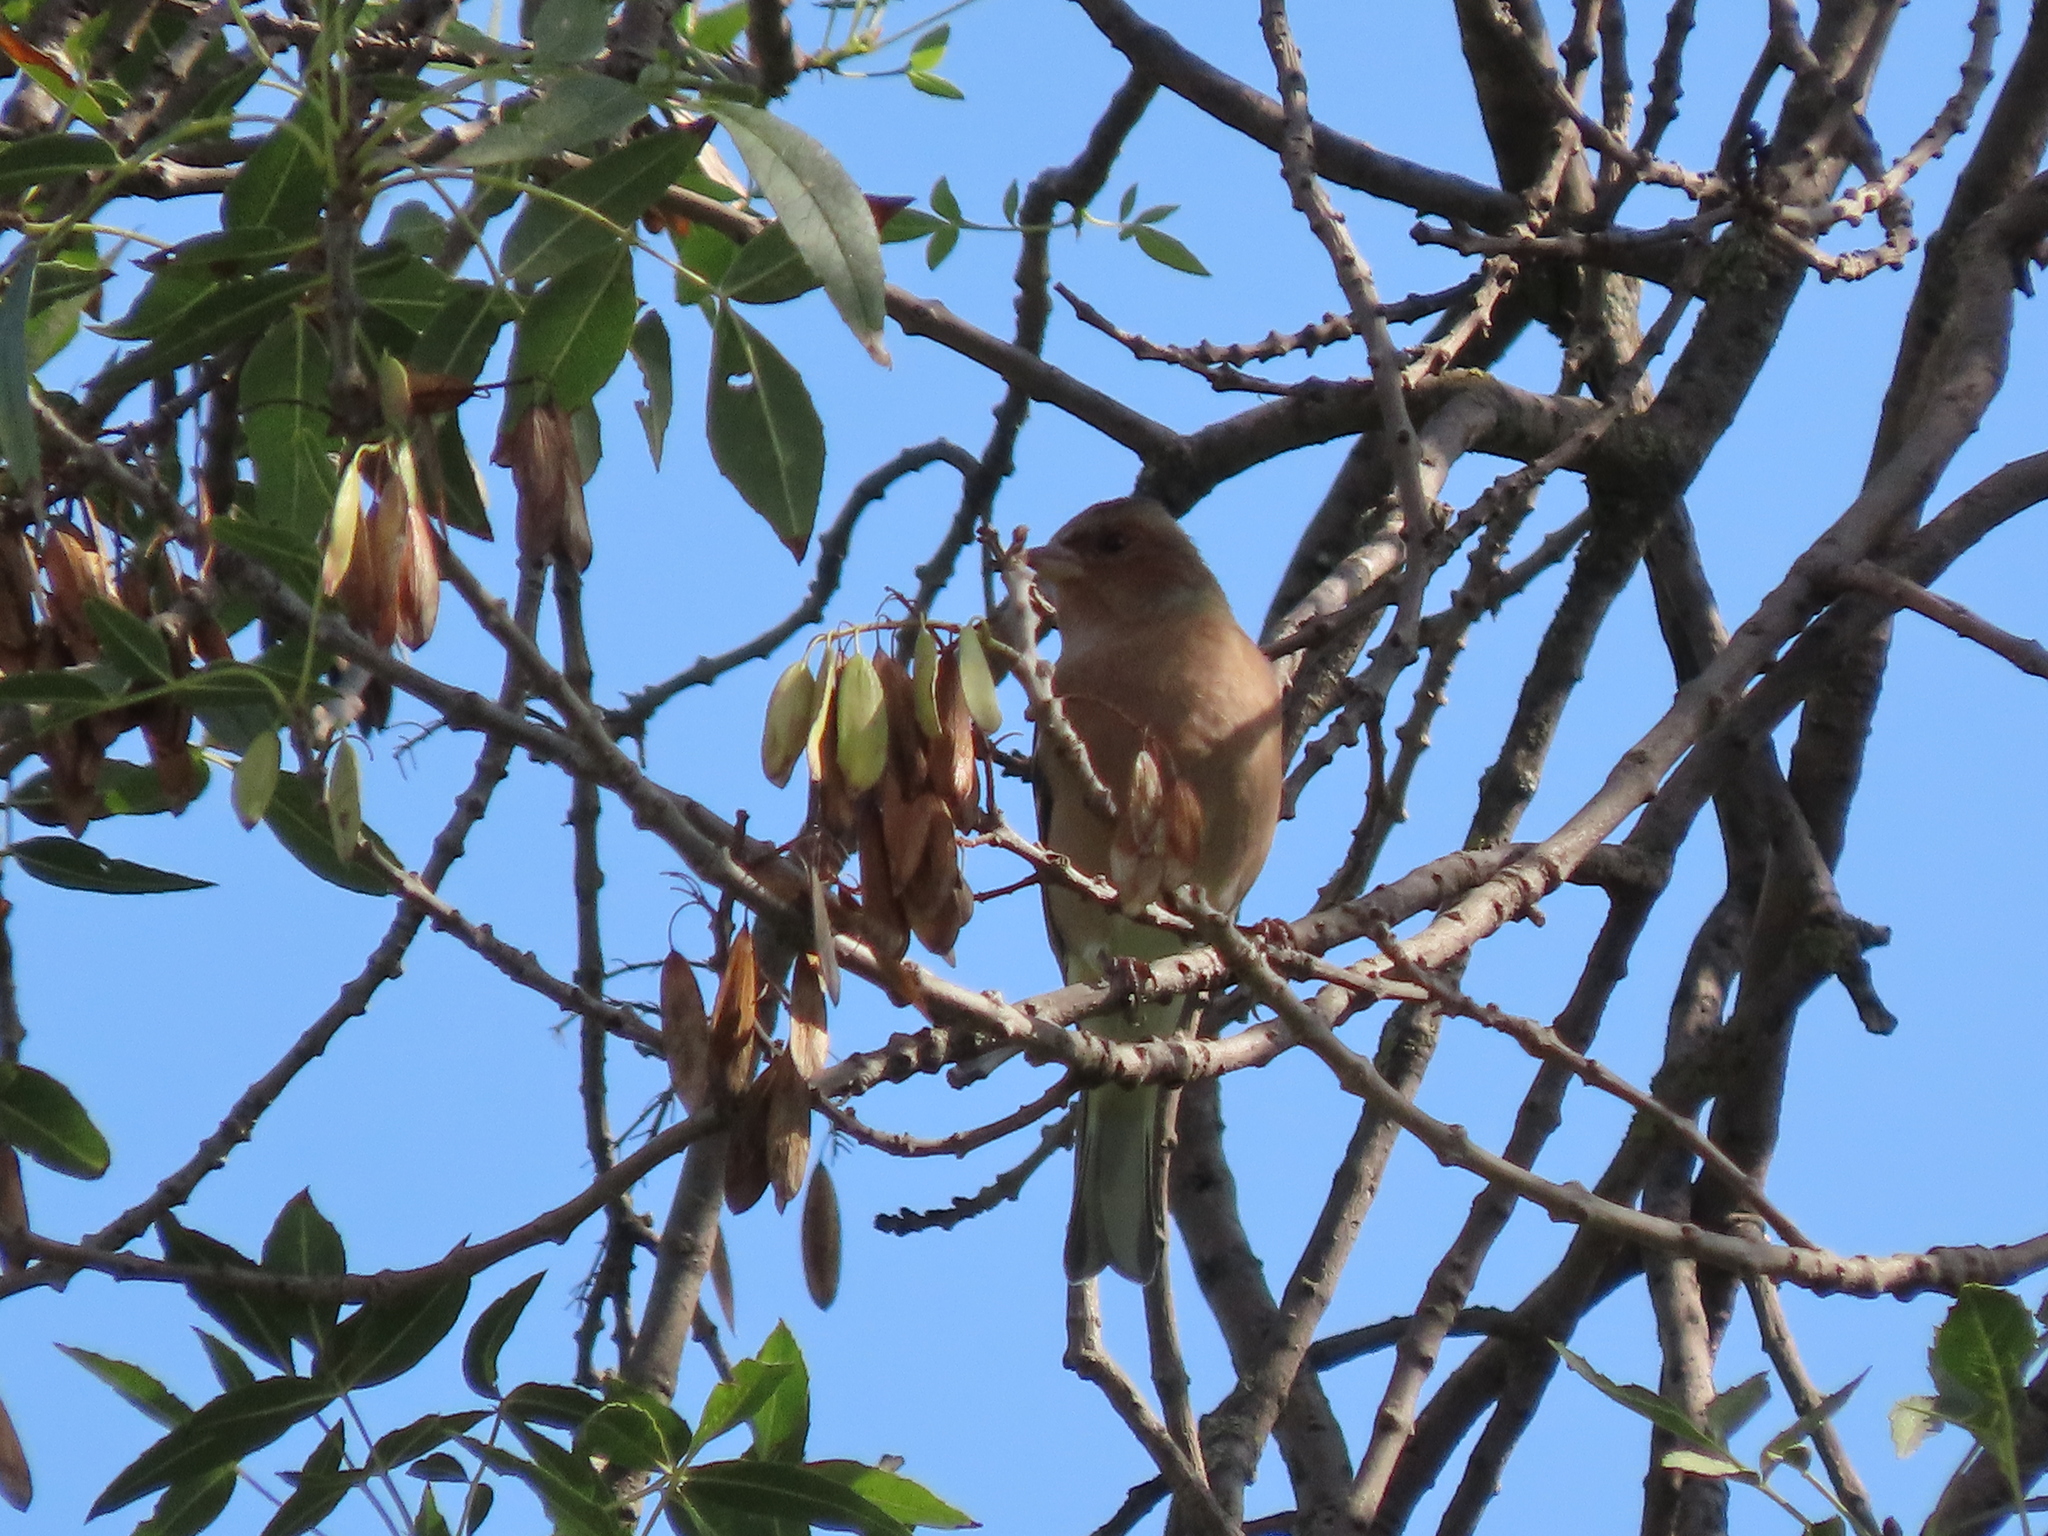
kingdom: Animalia
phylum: Chordata
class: Aves
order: Passeriformes
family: Fringillidae
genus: Fringilla
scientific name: Fringilla coelebs
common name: Common chaffinch
